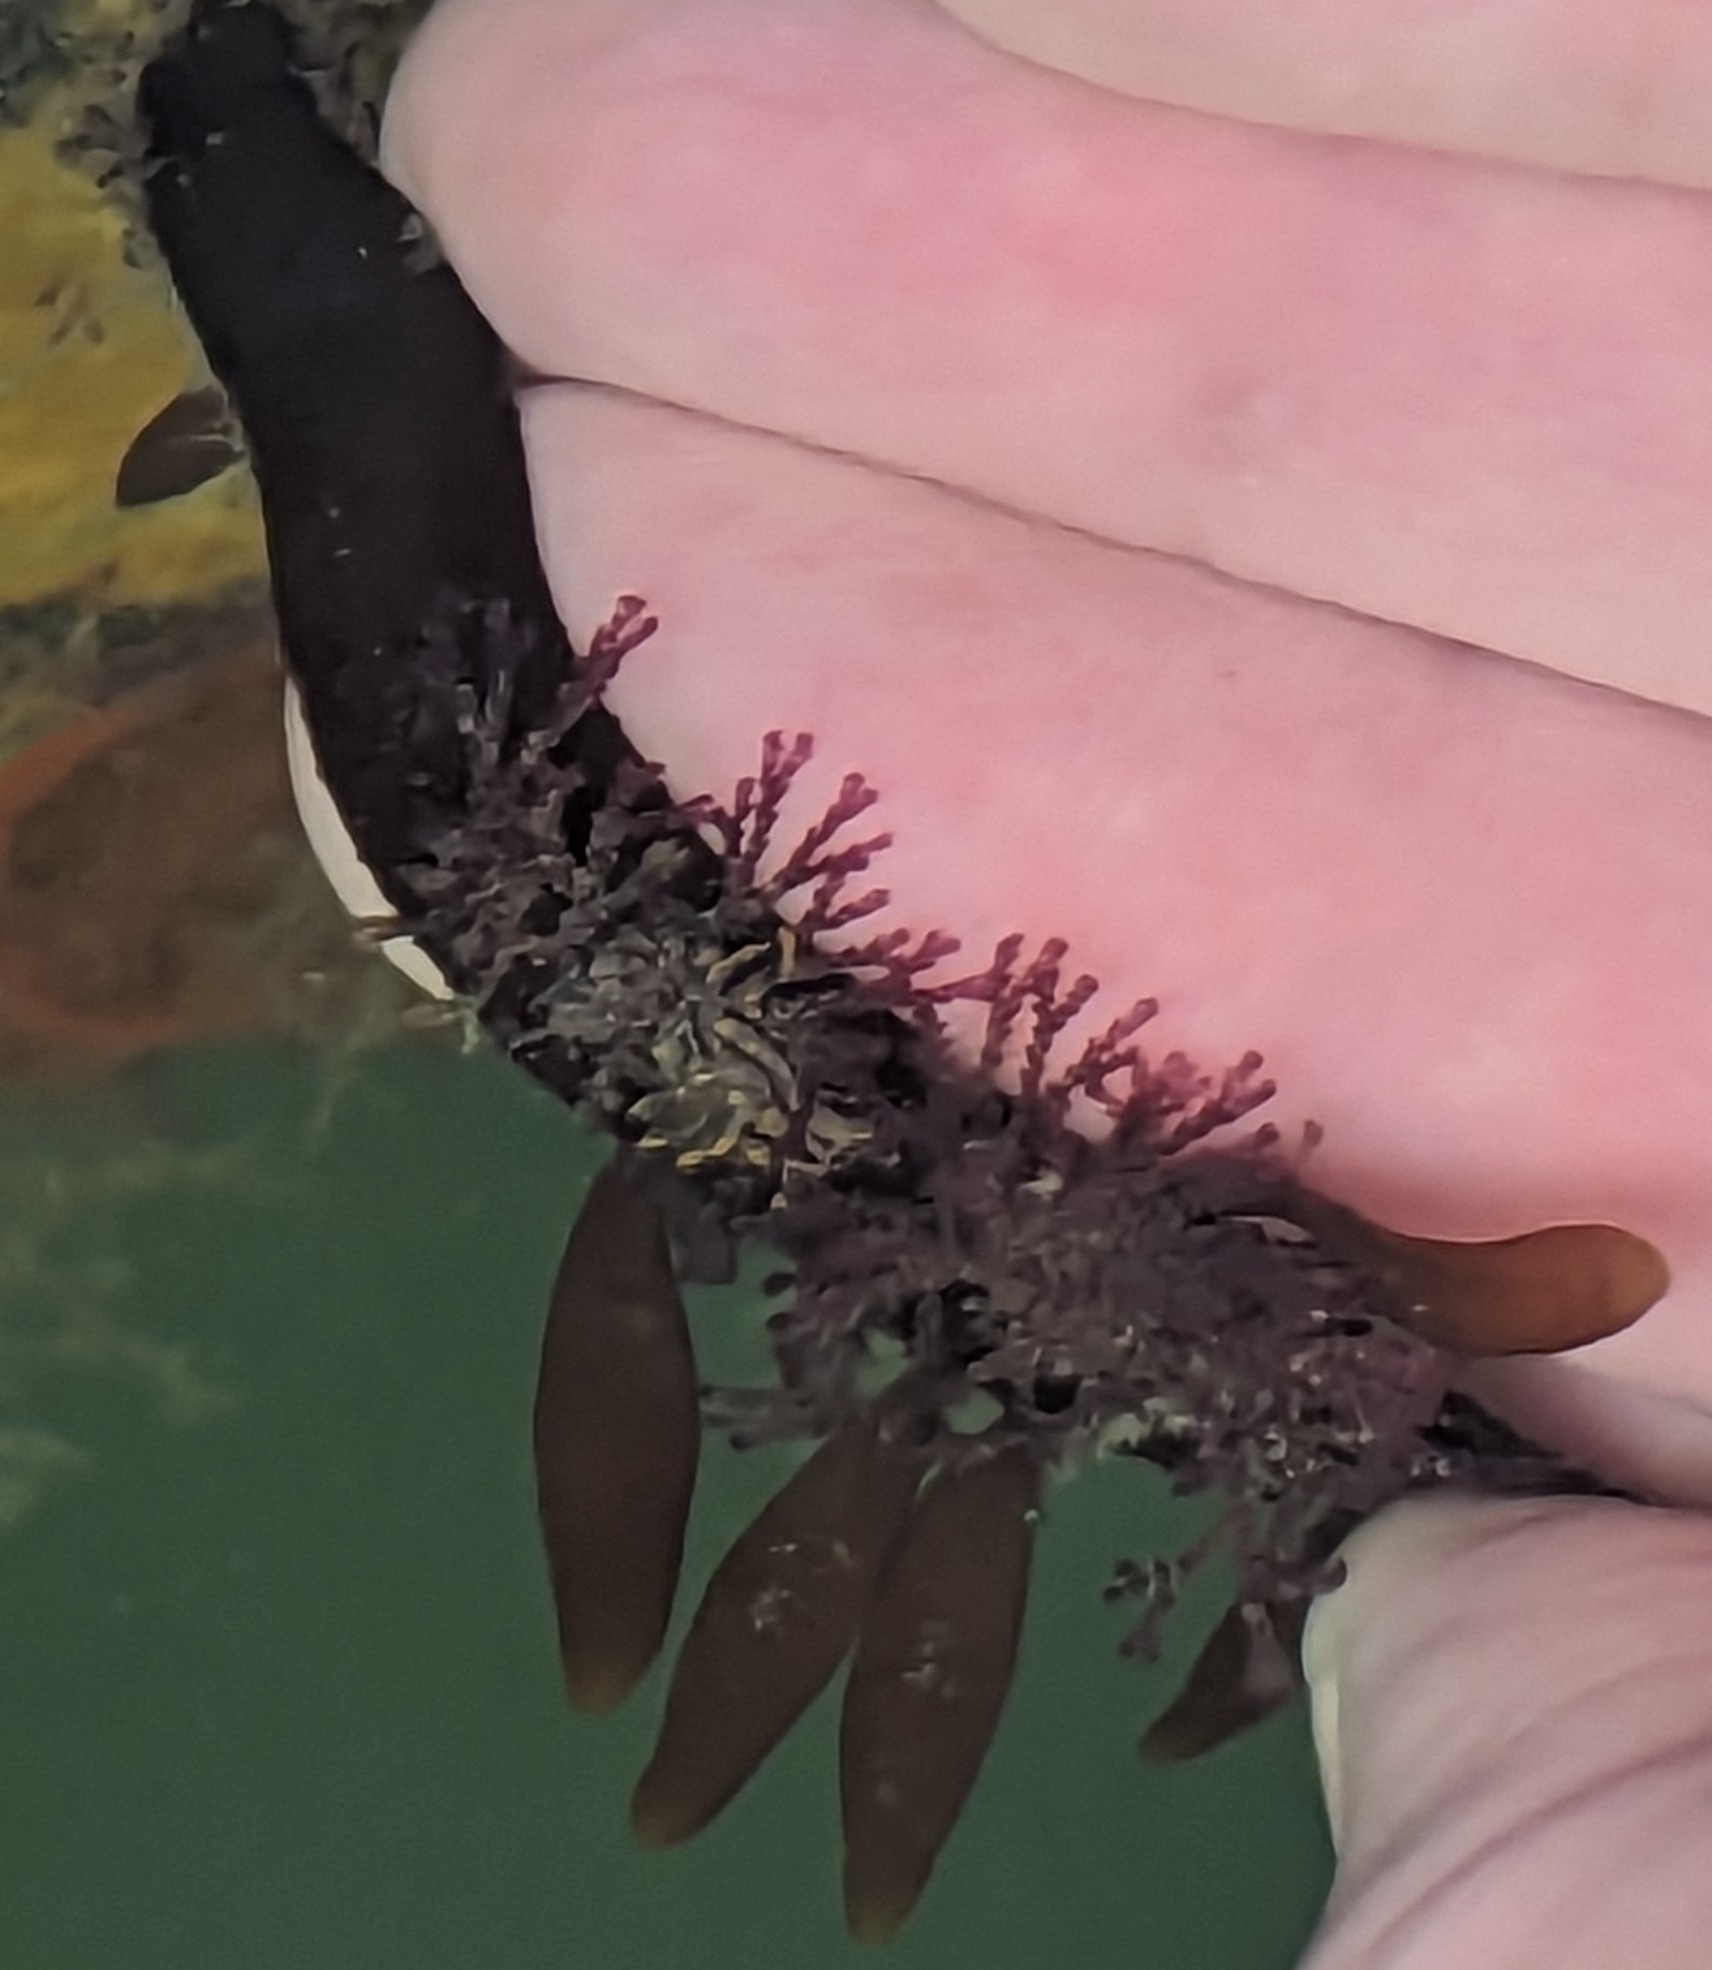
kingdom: Animalia
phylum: Mollusca
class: Gastropoda
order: Nudibranchia
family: Polyceridae
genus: Polycera
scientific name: Polycera atra
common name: Orange-spike polycera
